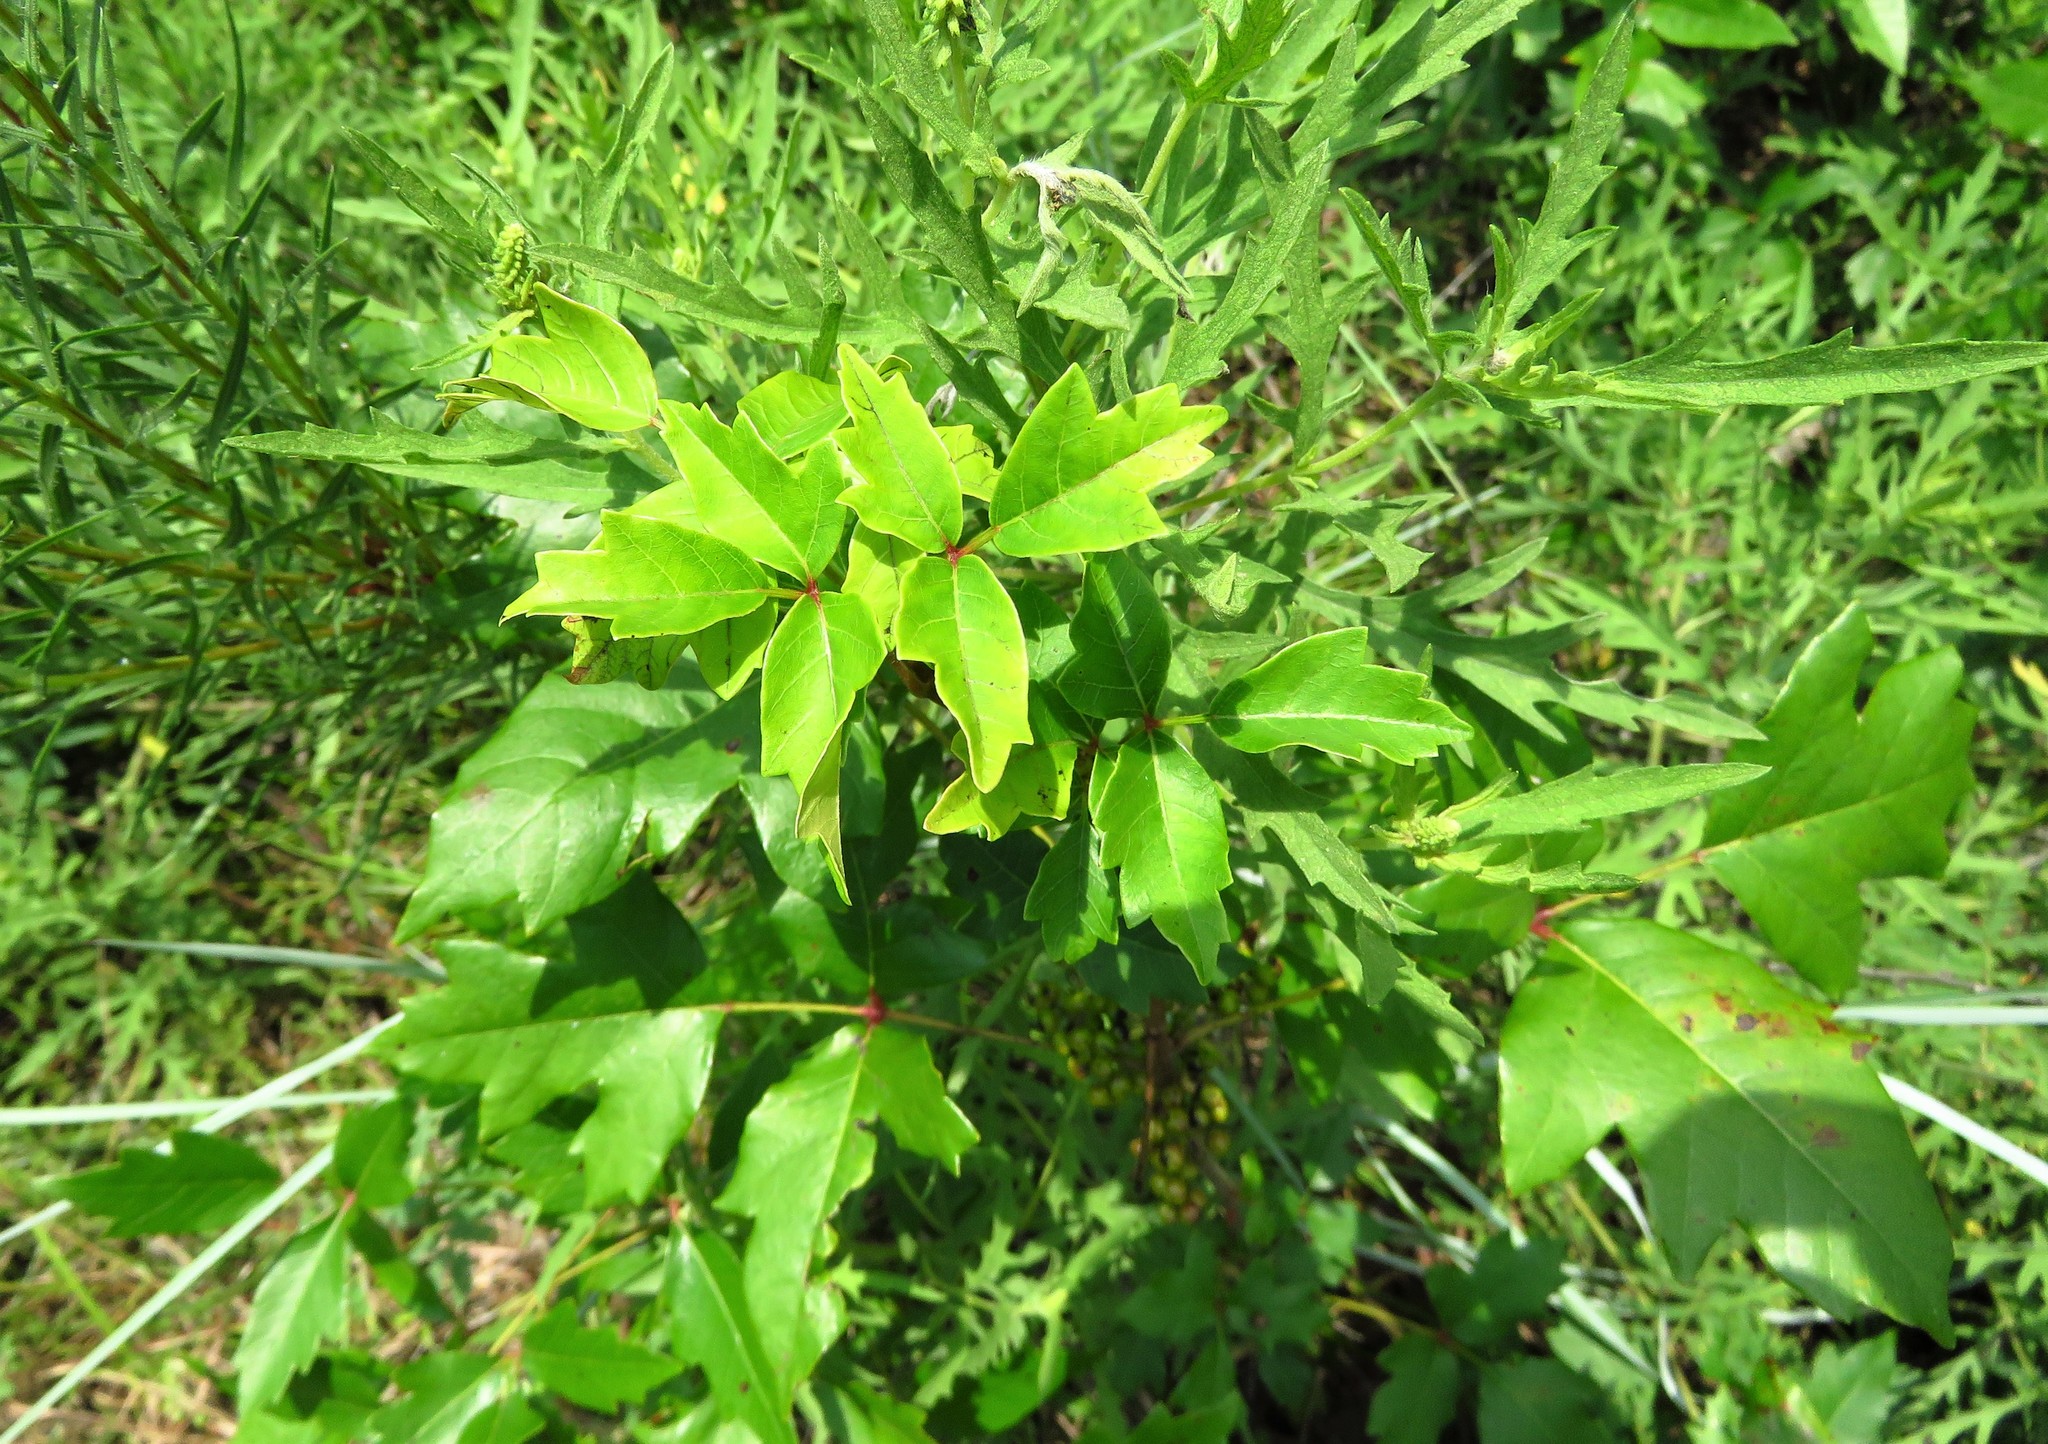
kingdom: Plantae
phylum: Tracheophyta
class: Magnoliopsida
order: Sapindales
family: Anacardiaceae
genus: Toxicodendron
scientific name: Toxicodendron radicans
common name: Poison ivy
